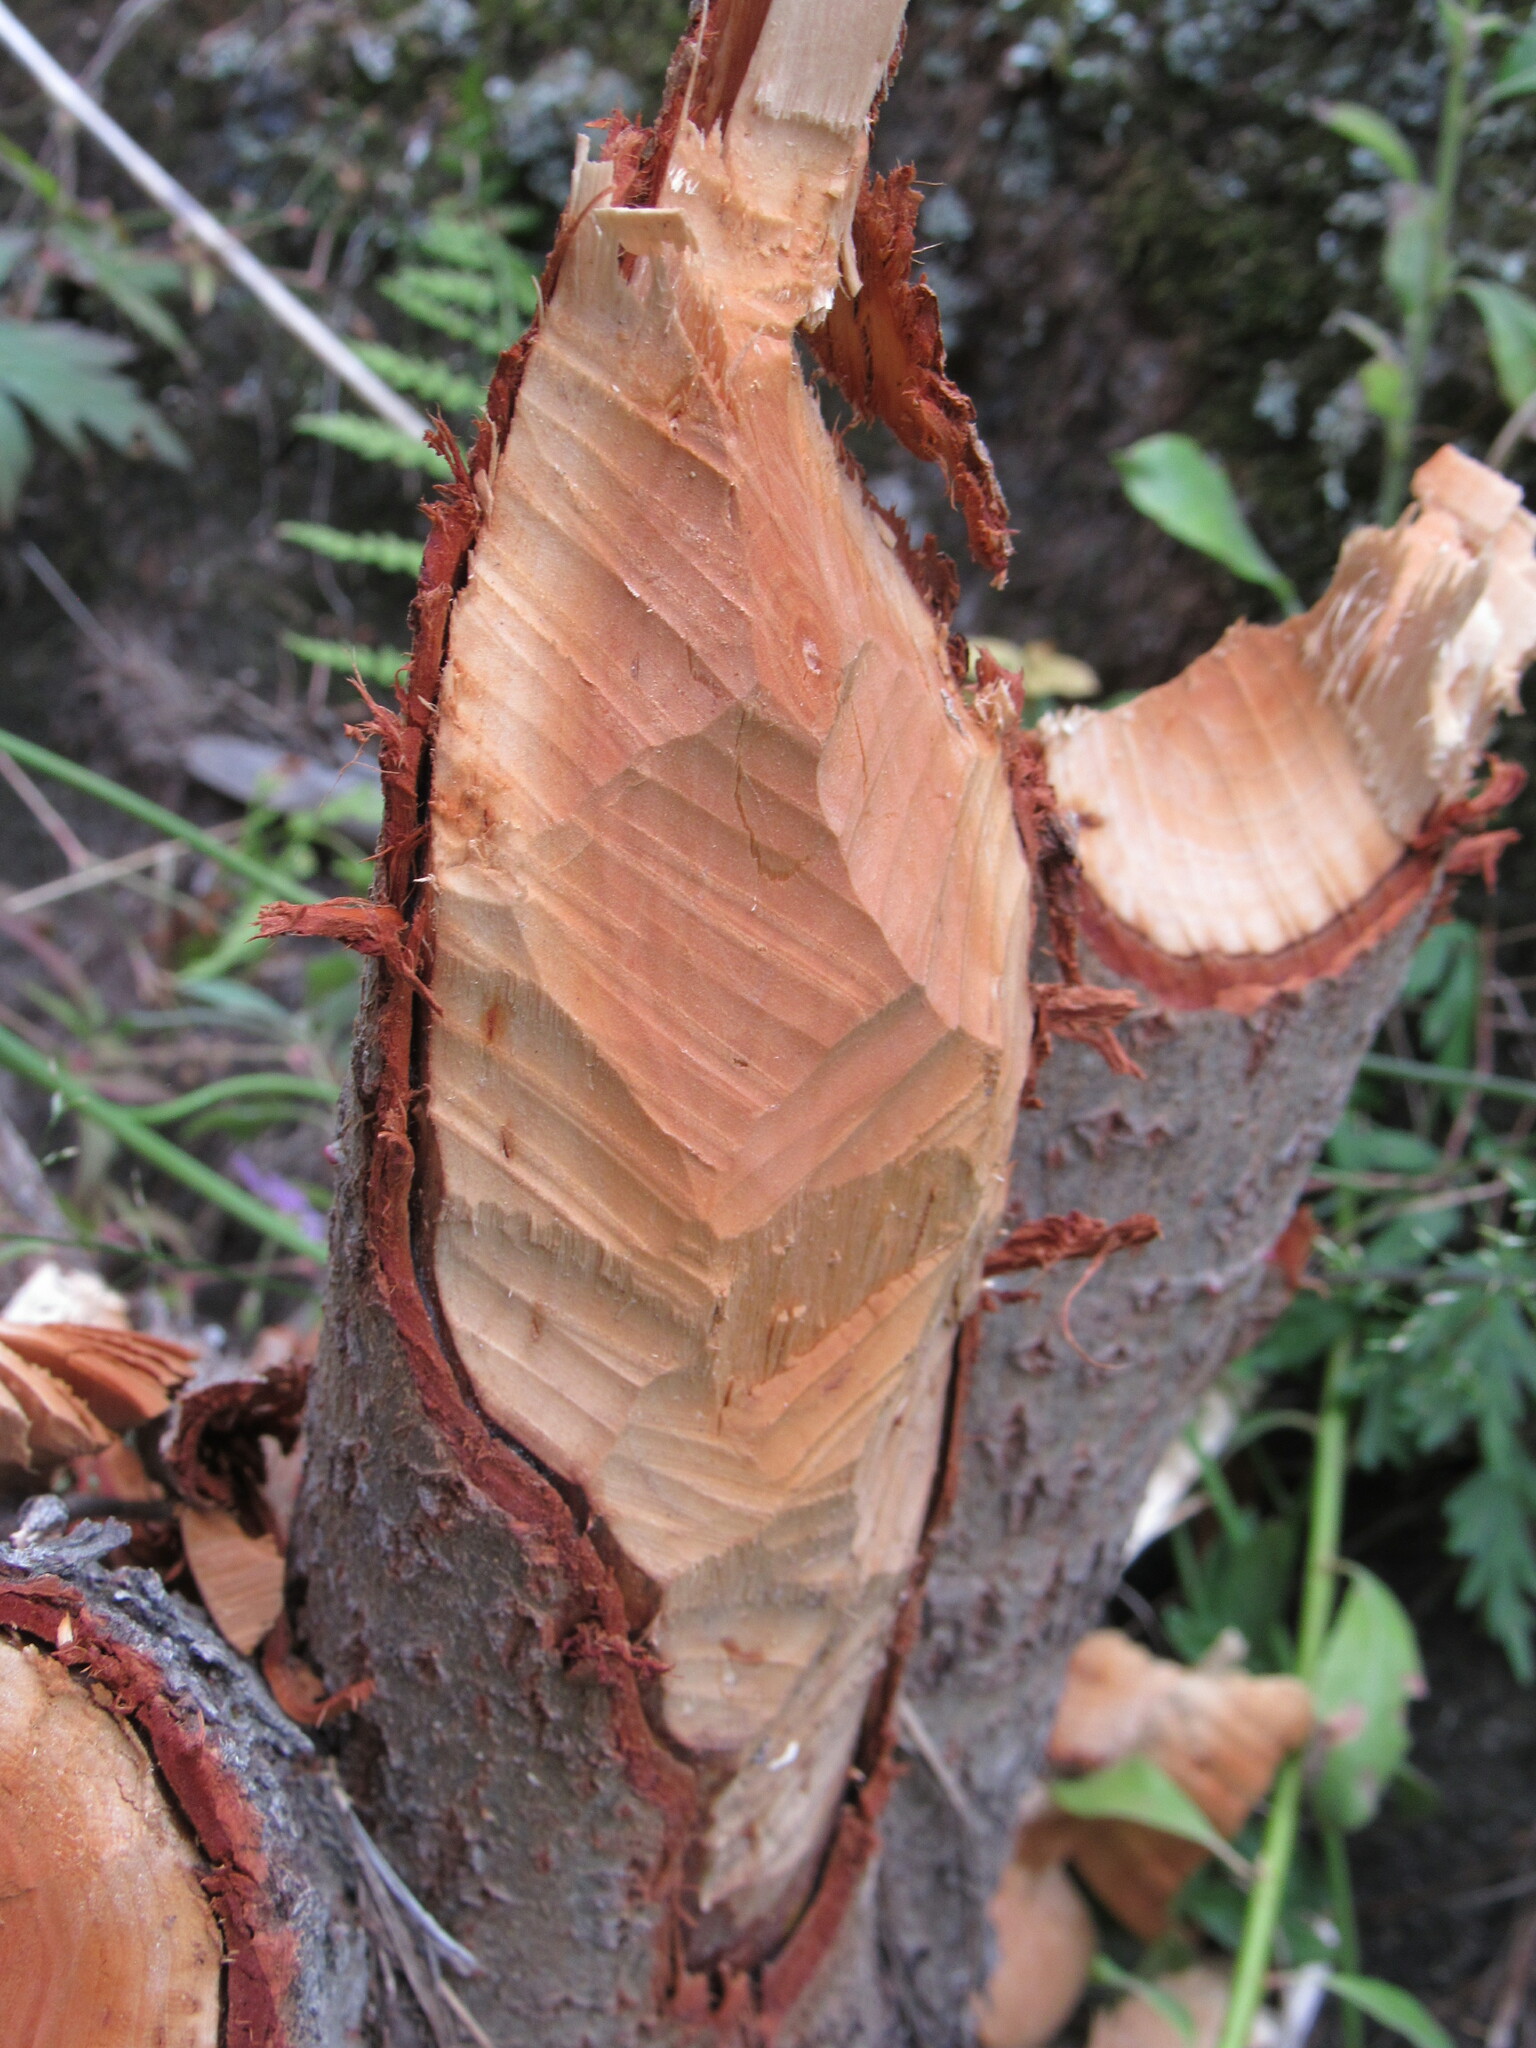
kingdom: Animalia
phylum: Chordata
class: Mammalia
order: Rodentia
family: Castoridae
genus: Castor
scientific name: Castor canadensis
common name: American beaver
